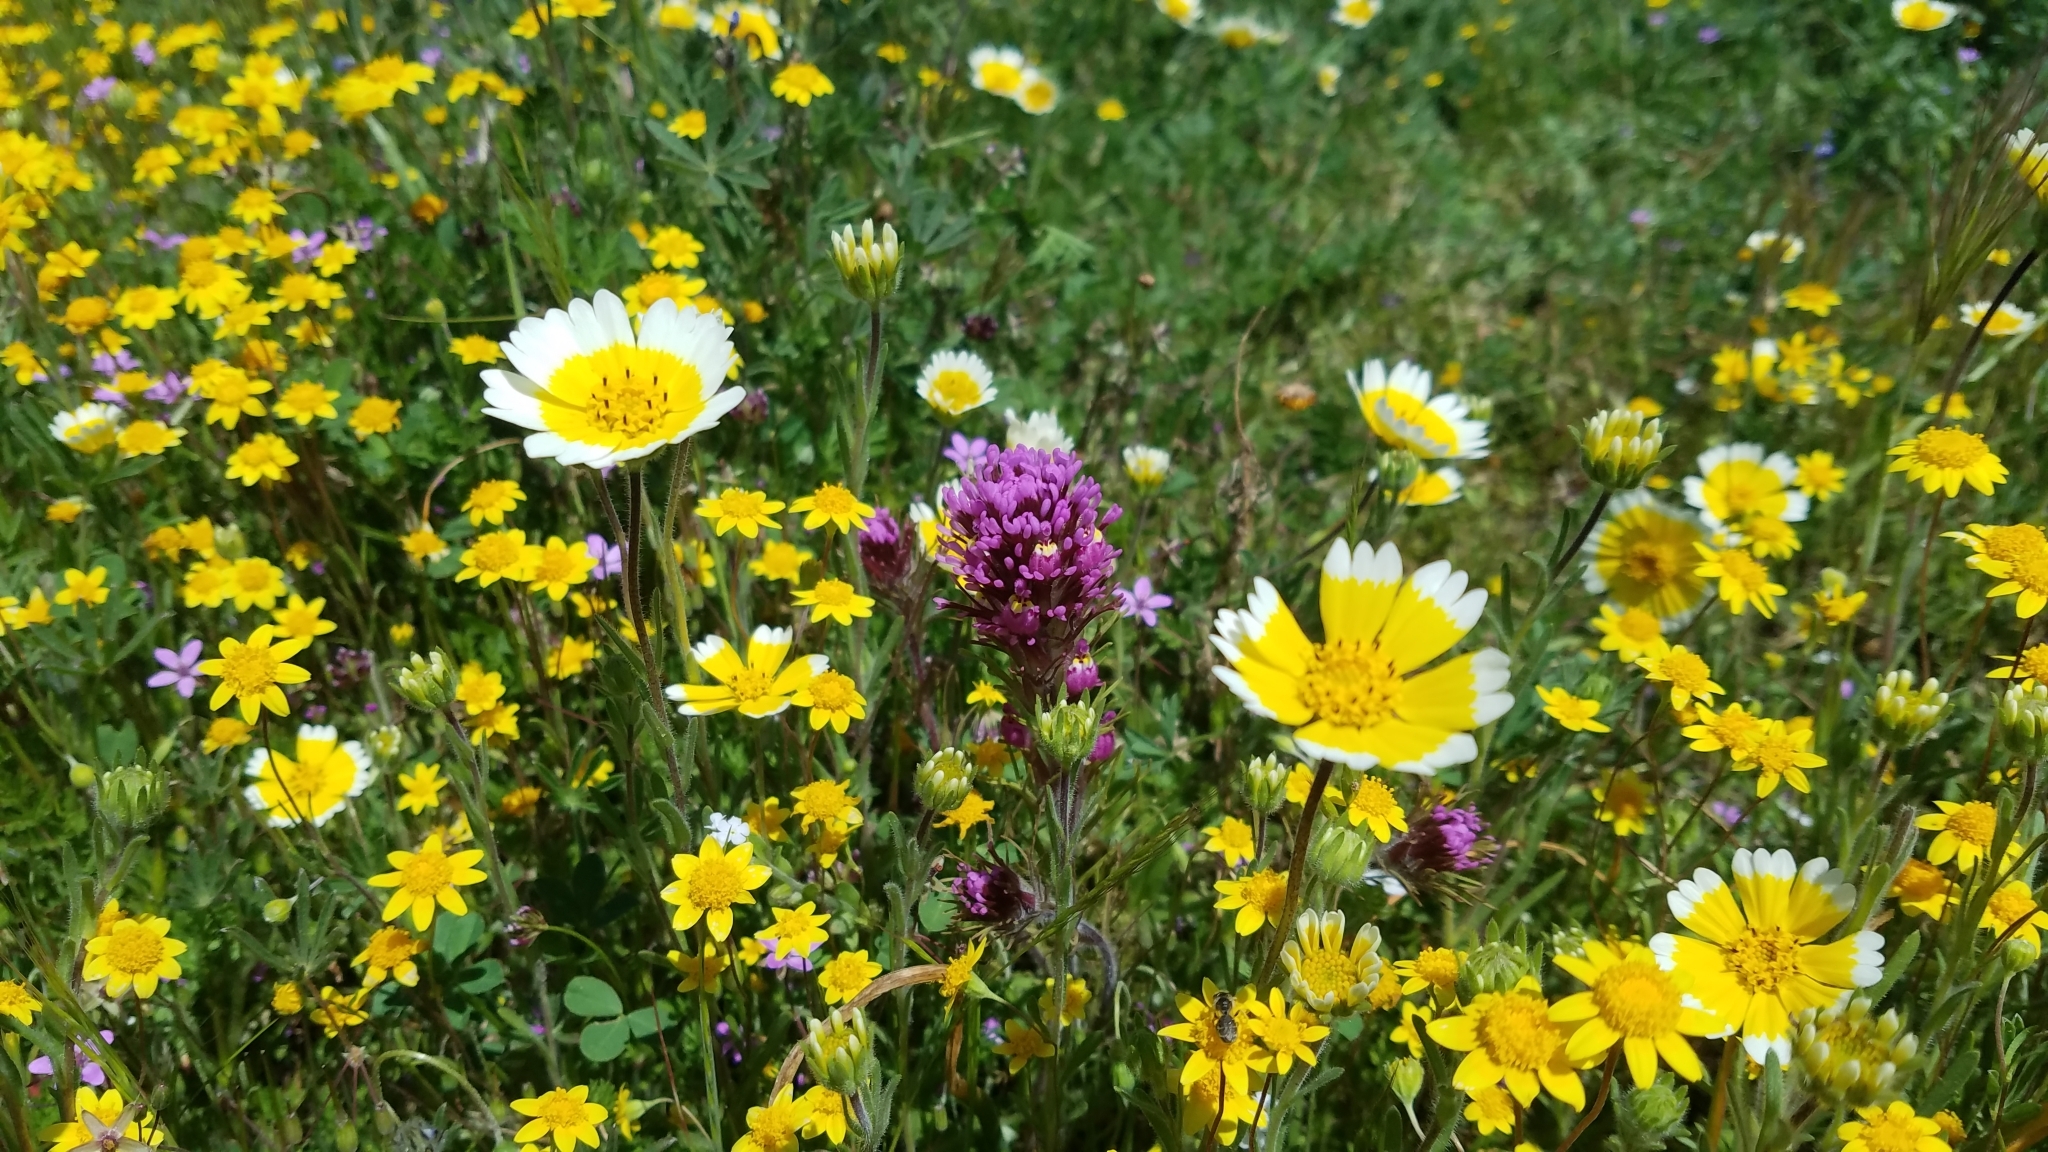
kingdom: Plantae
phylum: Tracheophyta
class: Magnoliopsida
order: Asterales
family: Asteraceae
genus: Layia
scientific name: Layia platyglossa
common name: Tidy-tips
